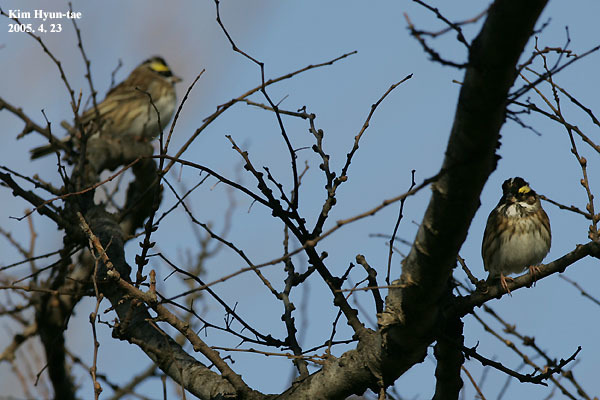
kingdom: Animalia
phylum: Chordata
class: Aves
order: Passeriformes
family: Emberizidae
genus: Emberiza
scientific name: Emberiza chrysophrys
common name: Yellow-browed bunting
